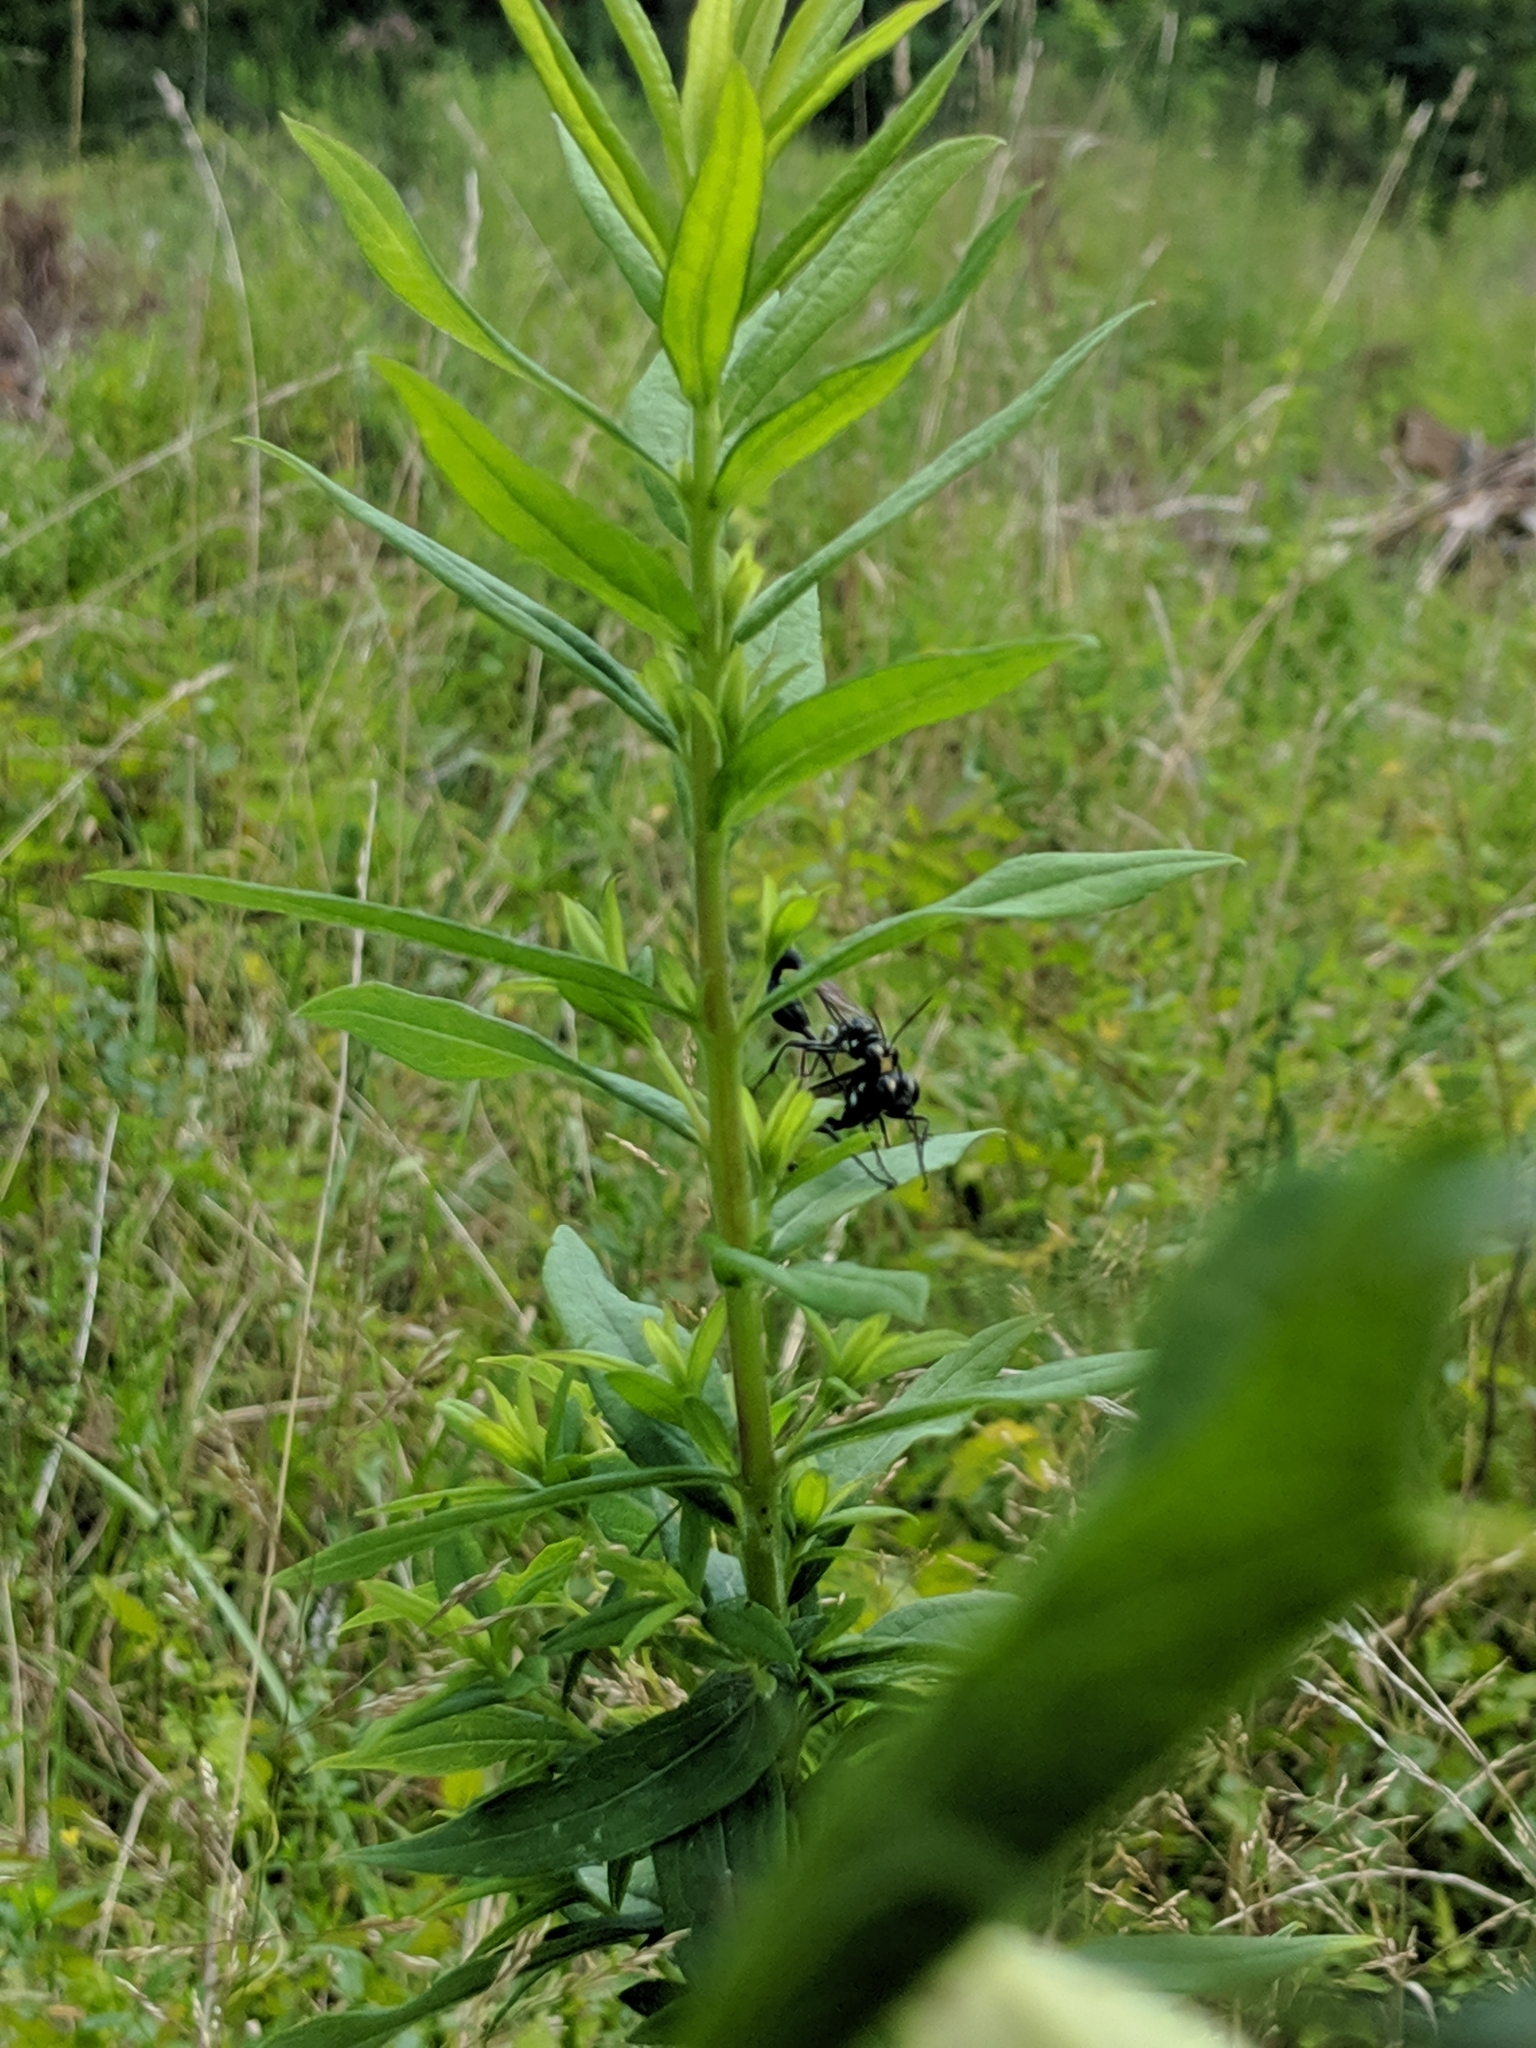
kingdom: Animalia
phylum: Arthropoda
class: Insecta
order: Hymenoptera
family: Sphecidae
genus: Eremnophila
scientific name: Eremnophila aureonotata
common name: Gold-marked thread-waisted wasp
